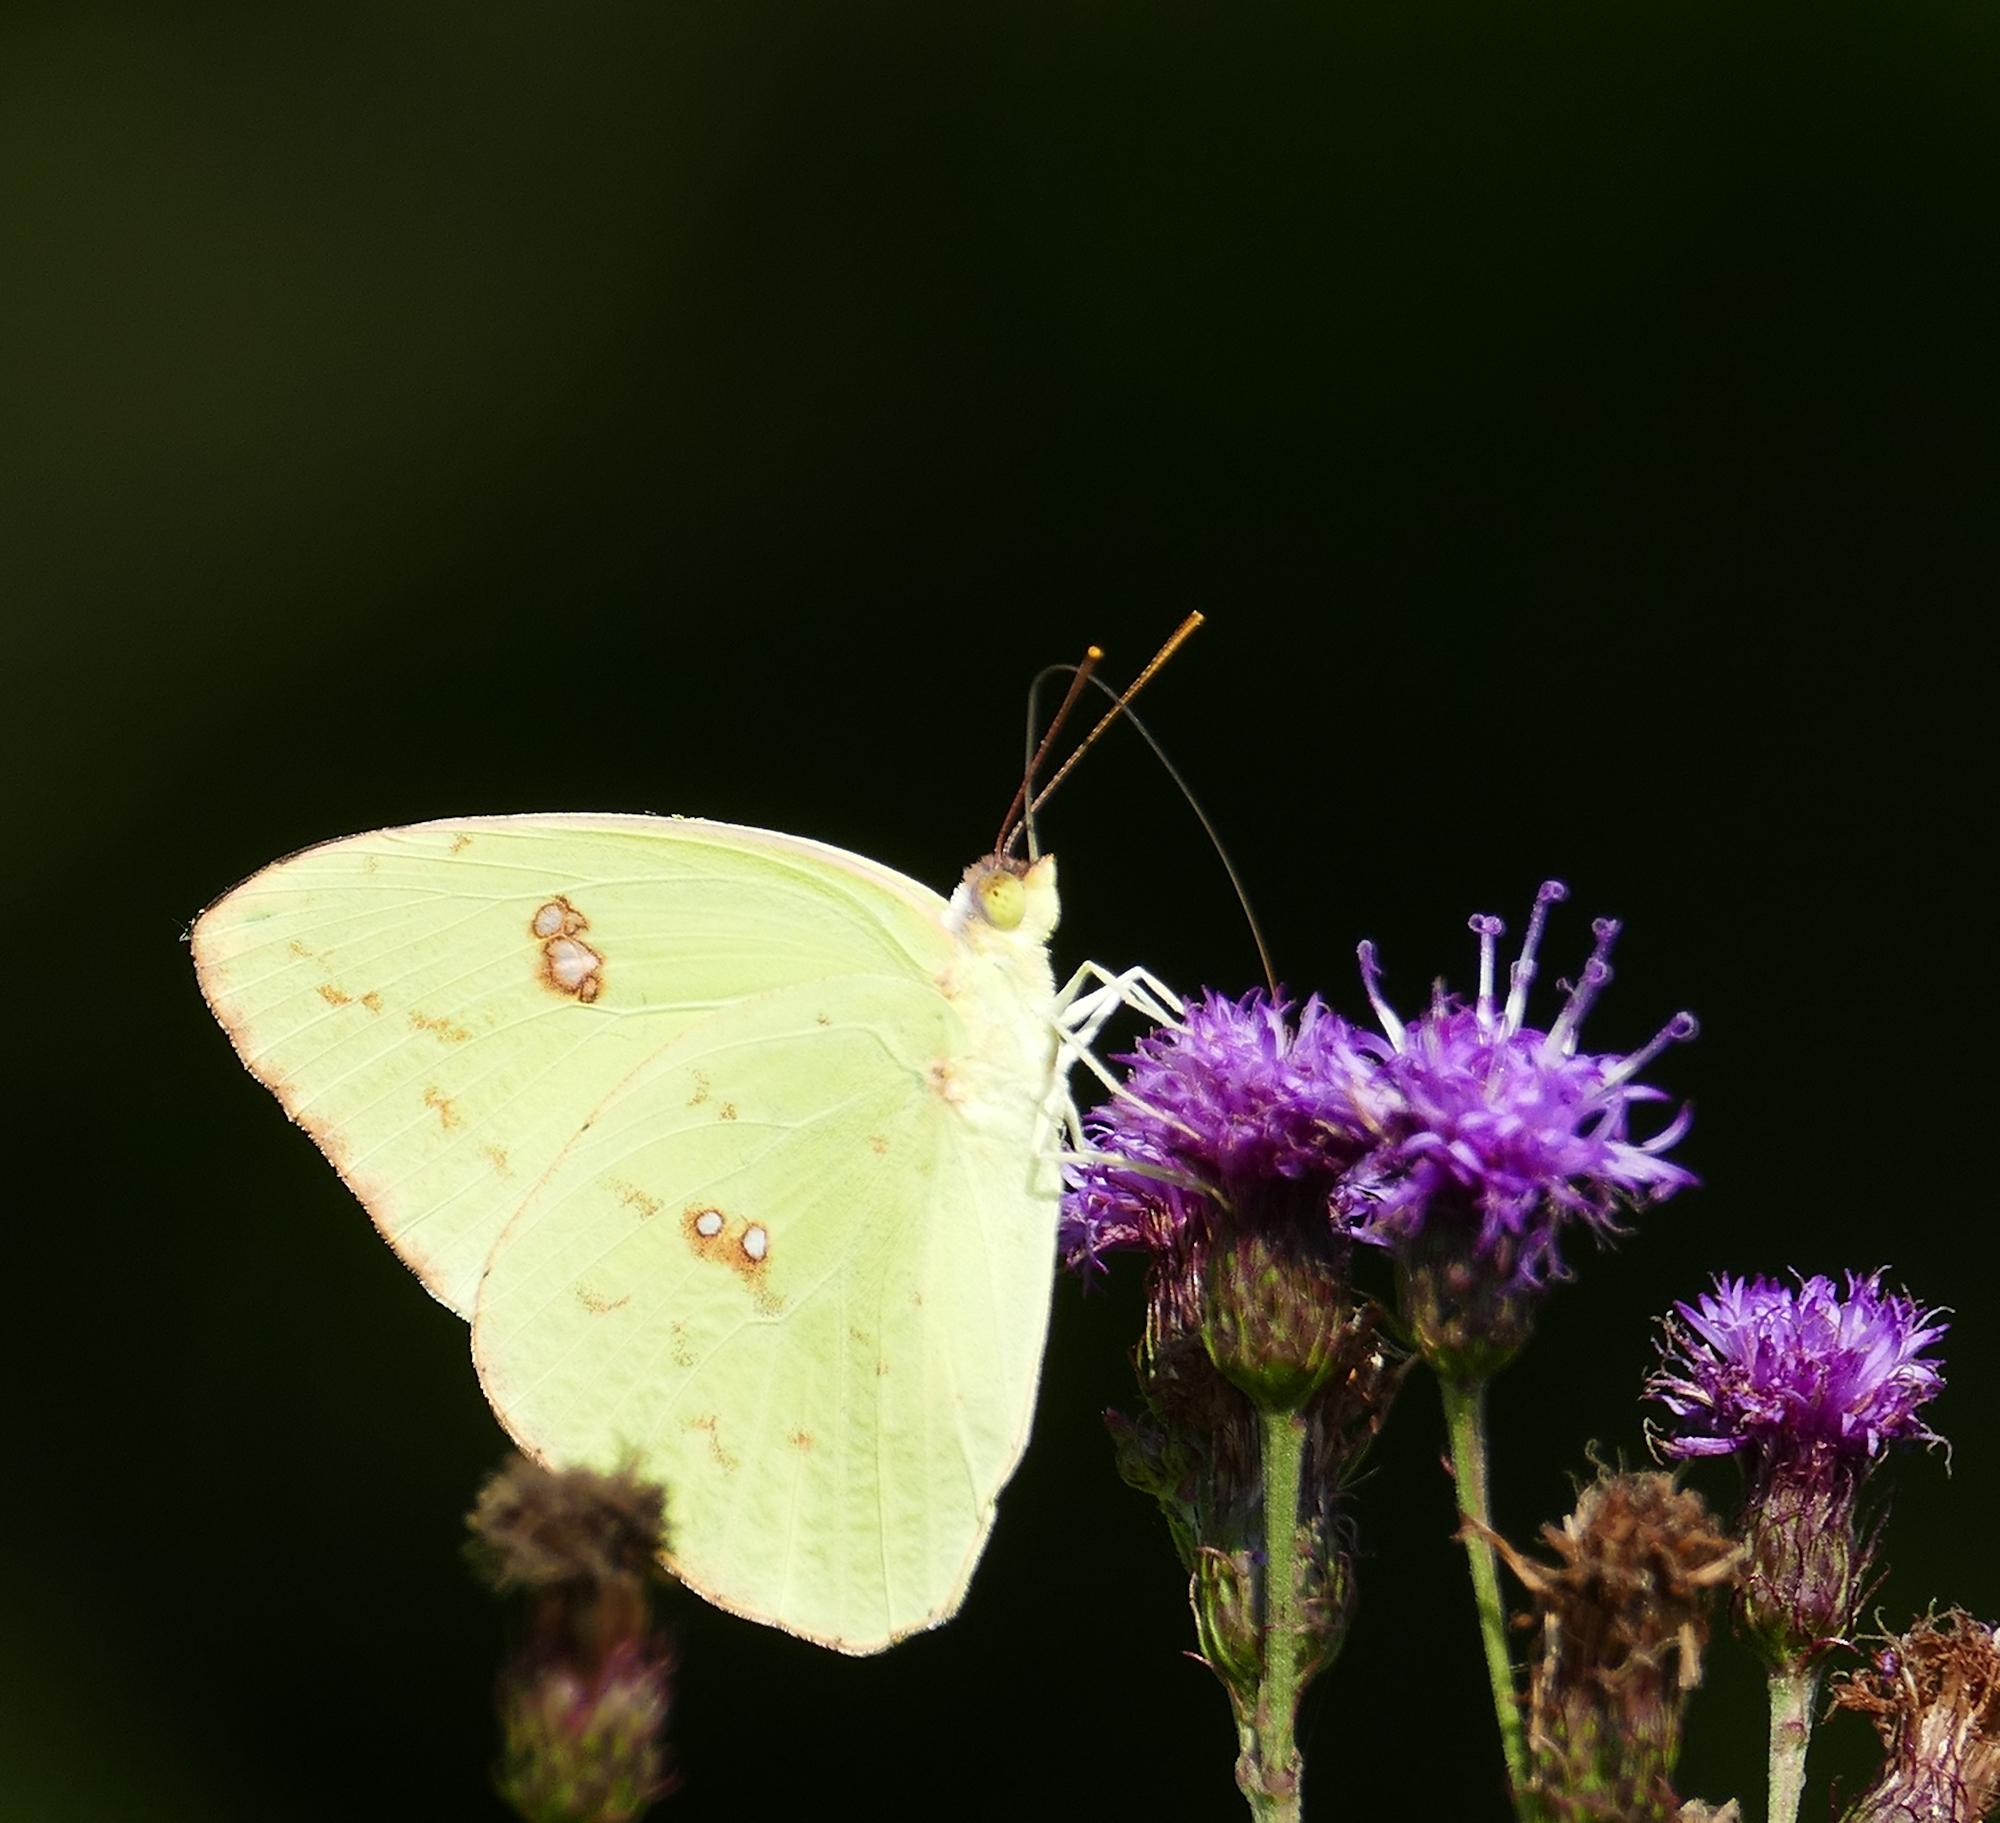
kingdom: Animalia
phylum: Arthropoda
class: Insecta
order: Lepidoptera
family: Pieridae
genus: Phoebis
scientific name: Phoebis sennae
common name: Cloudless sulphur
